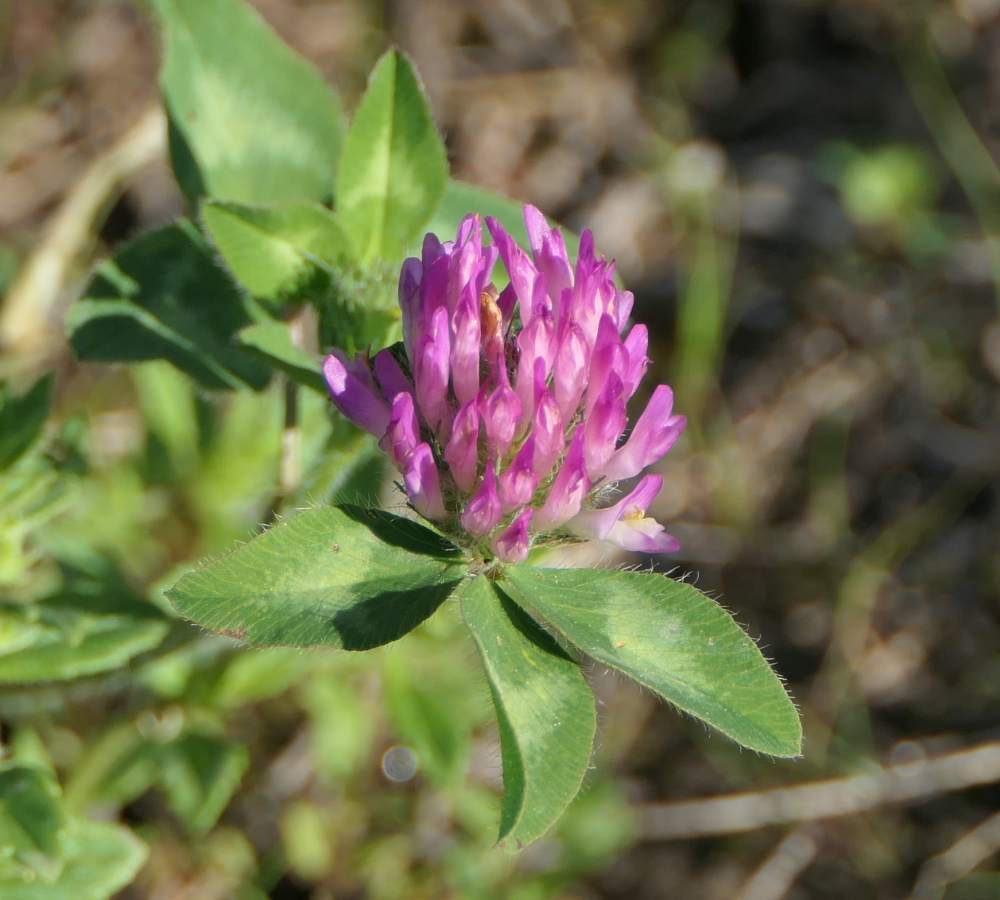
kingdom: Plantae
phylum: Tracheophyta
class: Magnoliopsida
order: Fabales
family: Fabaceae
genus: Trifolium
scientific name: Trifolium pratense
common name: Red clover
